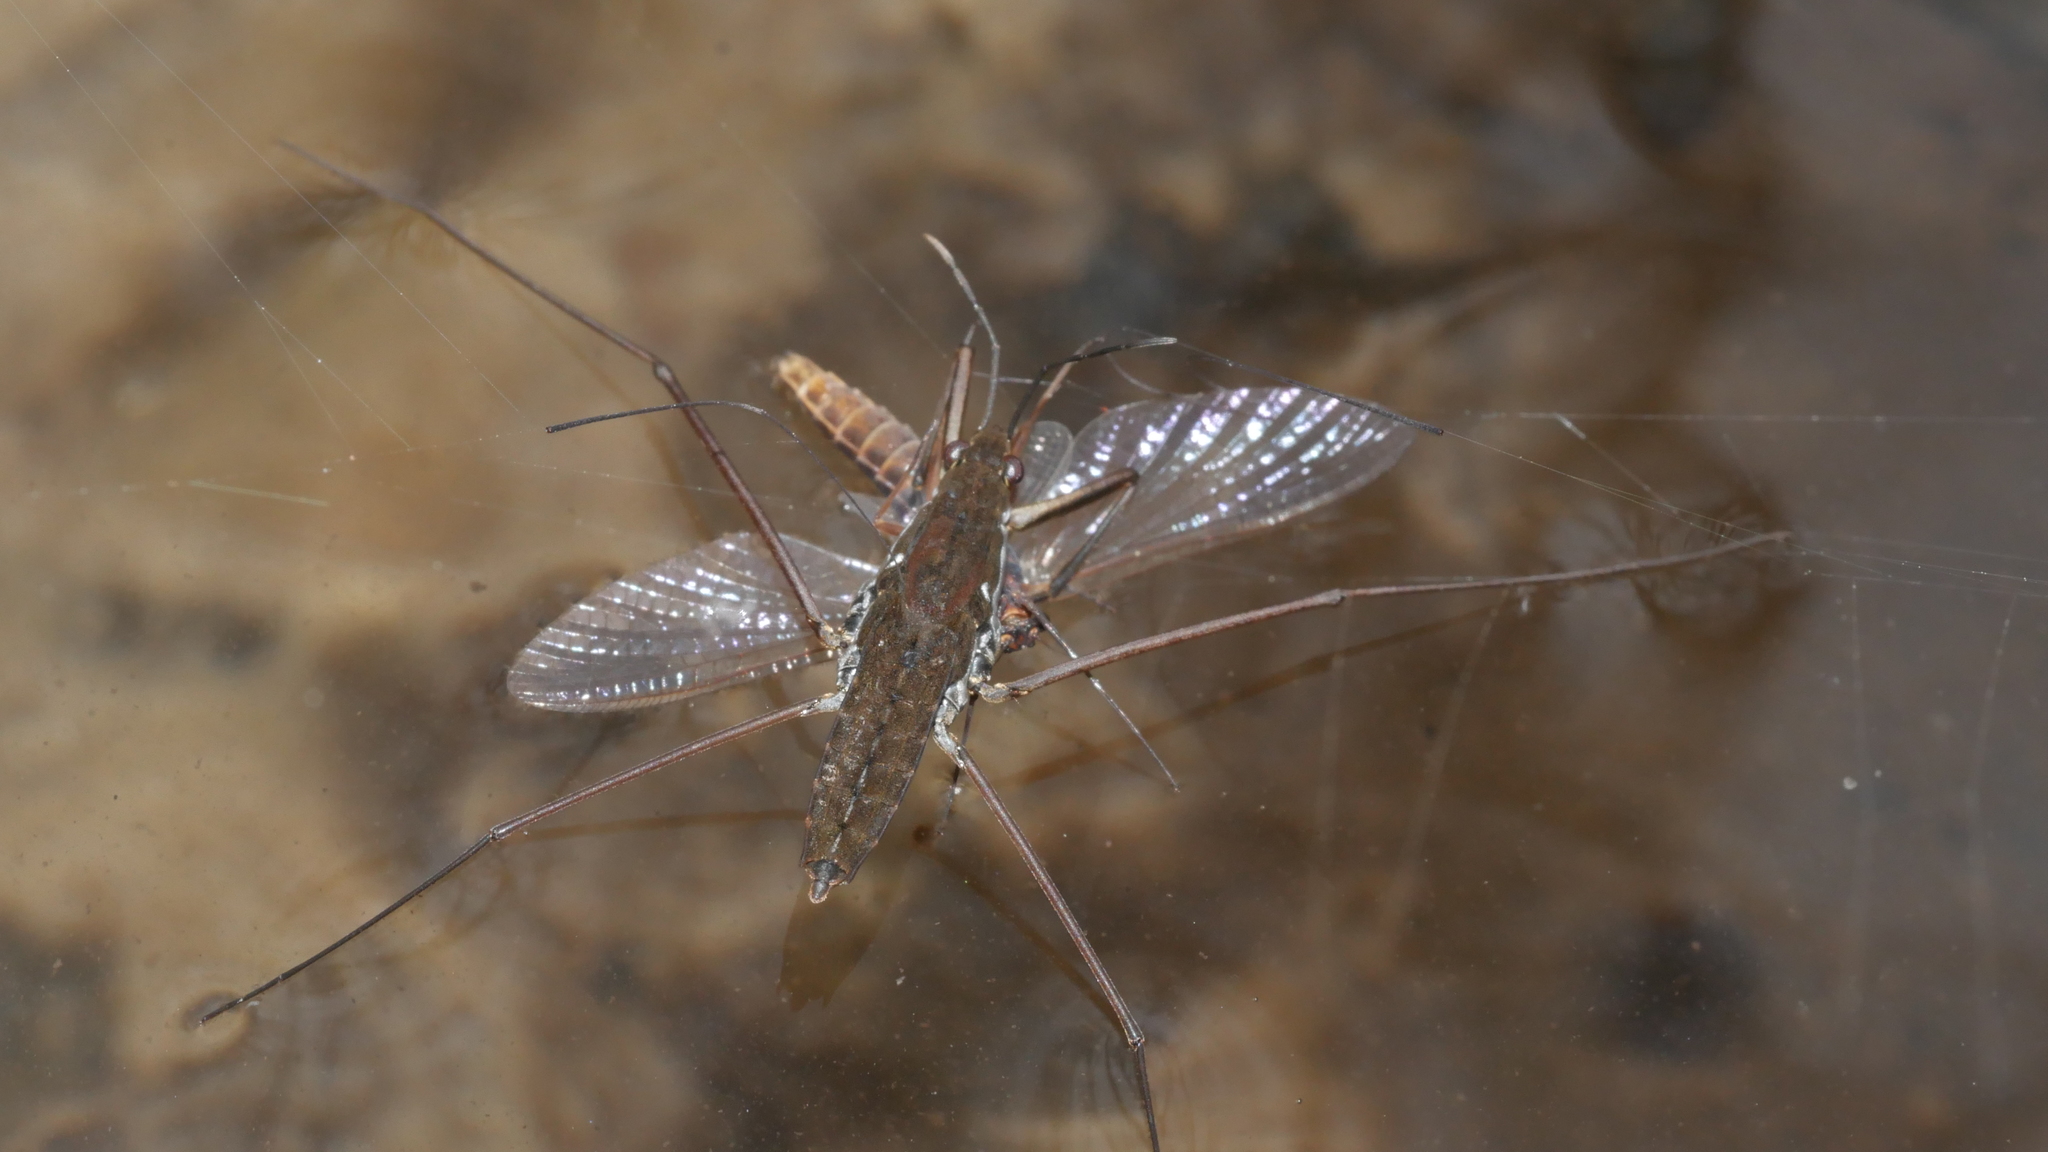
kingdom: Animalia
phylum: Arthropoda
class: Insecta
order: Hemiptera
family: Gerridae
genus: Aquarius
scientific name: Aquarius
